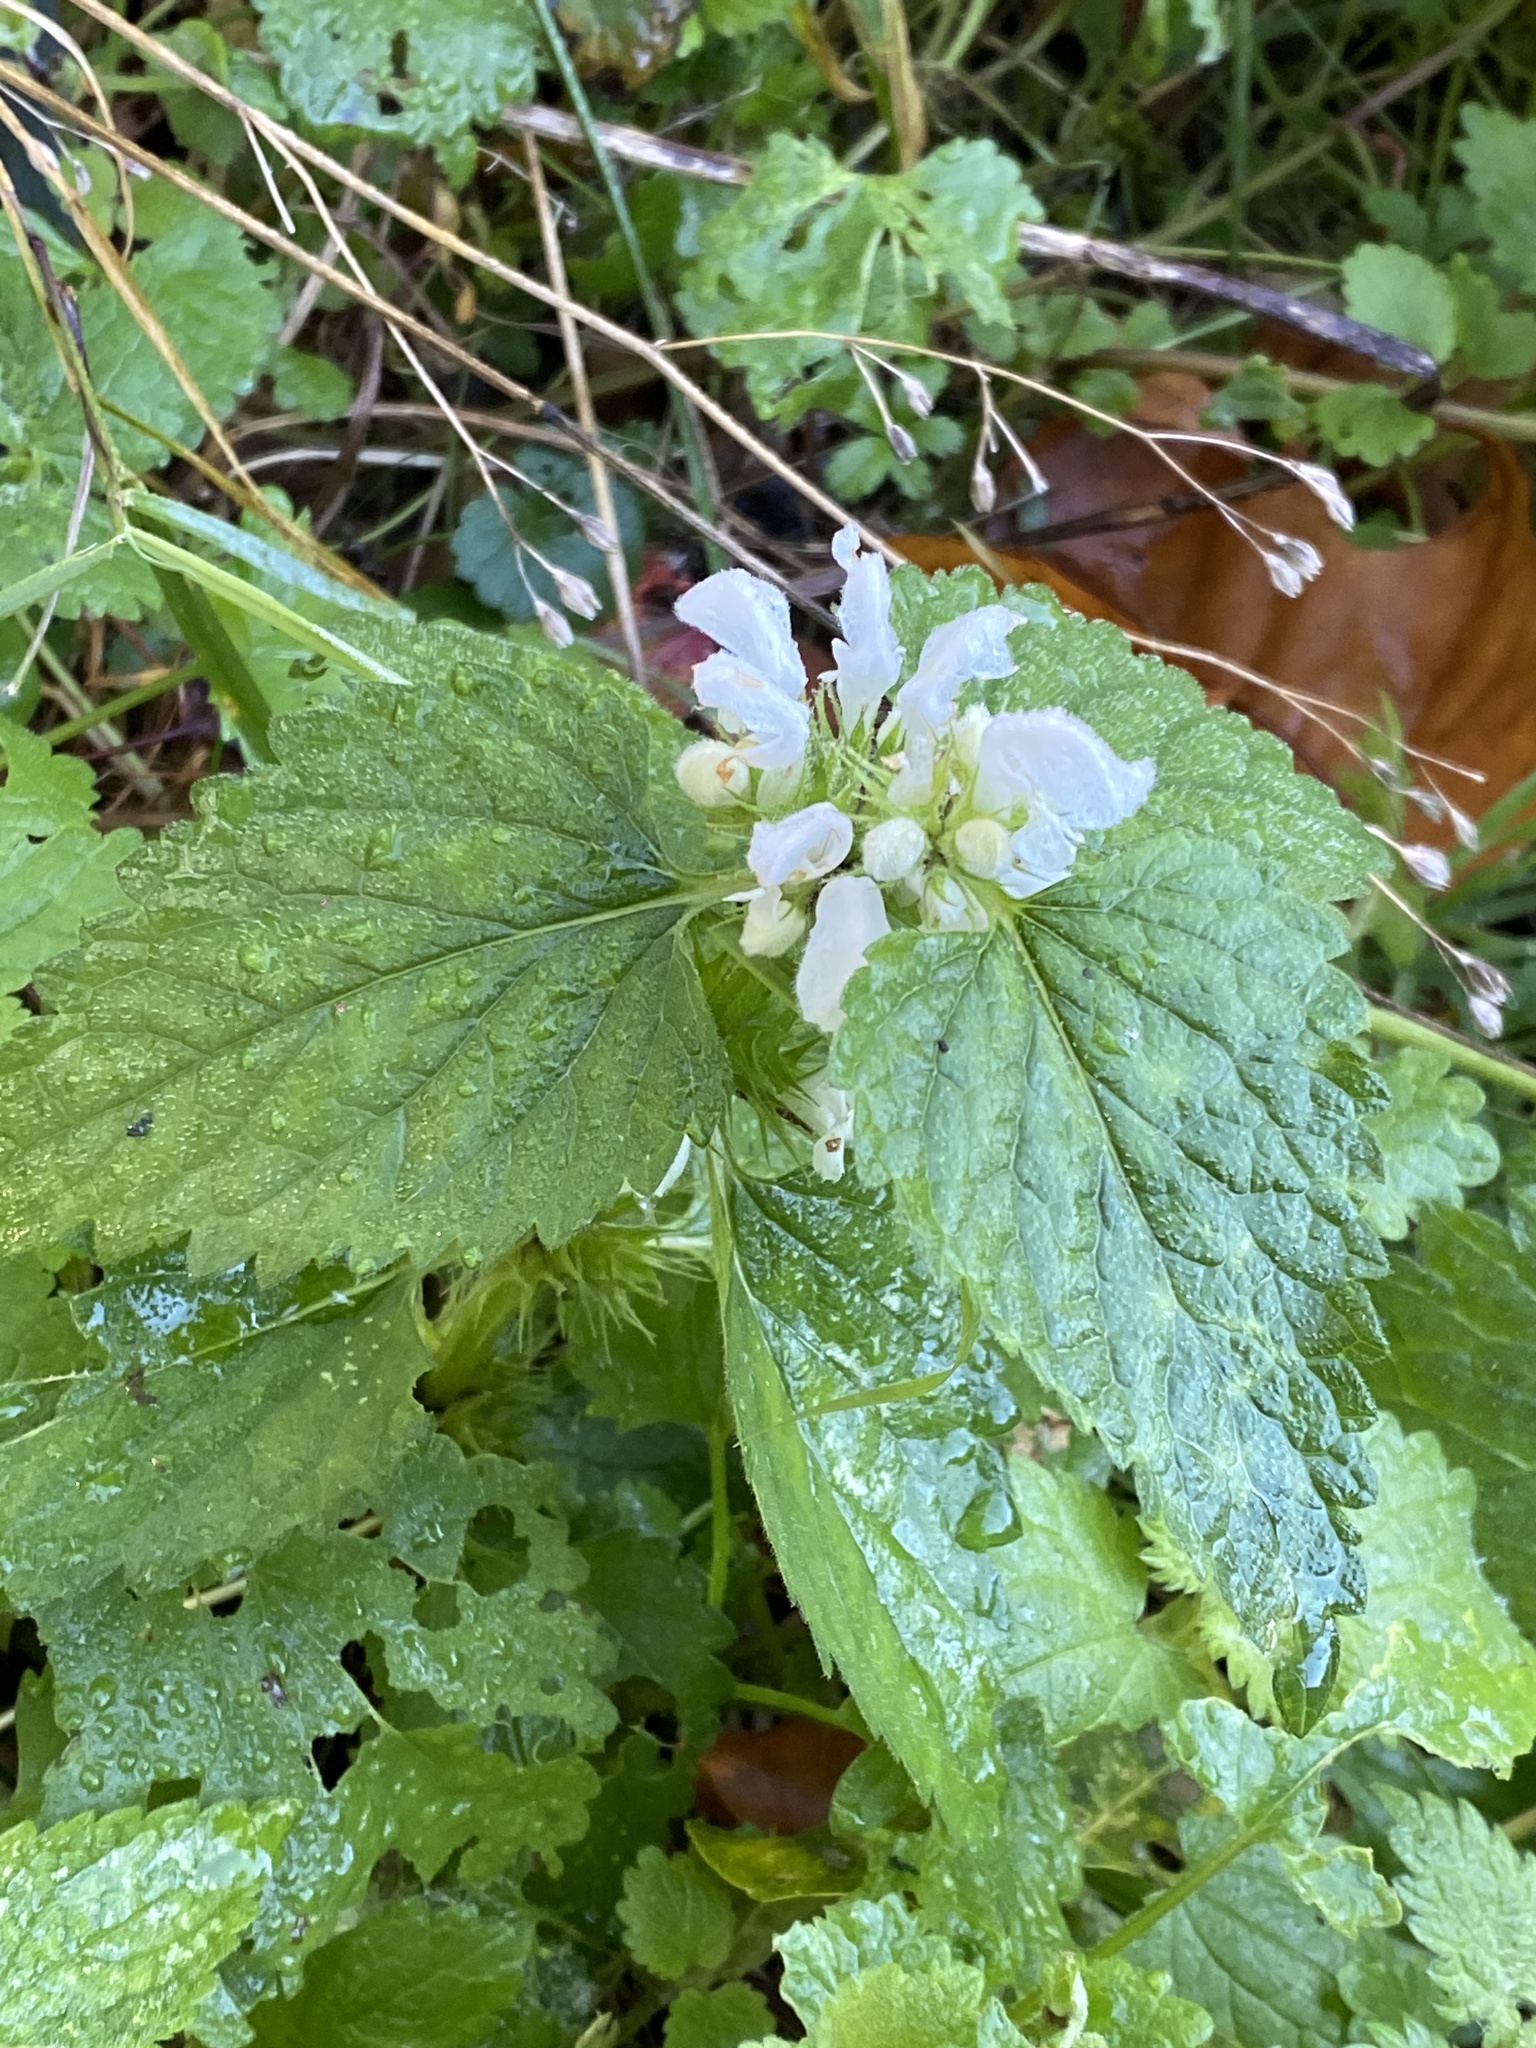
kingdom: Plantae
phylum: Tracheophyta
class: Magnoliopsida
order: Lamiales
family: Lamiaceae
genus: Lamium
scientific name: Lamium album
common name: White dead-nettle
